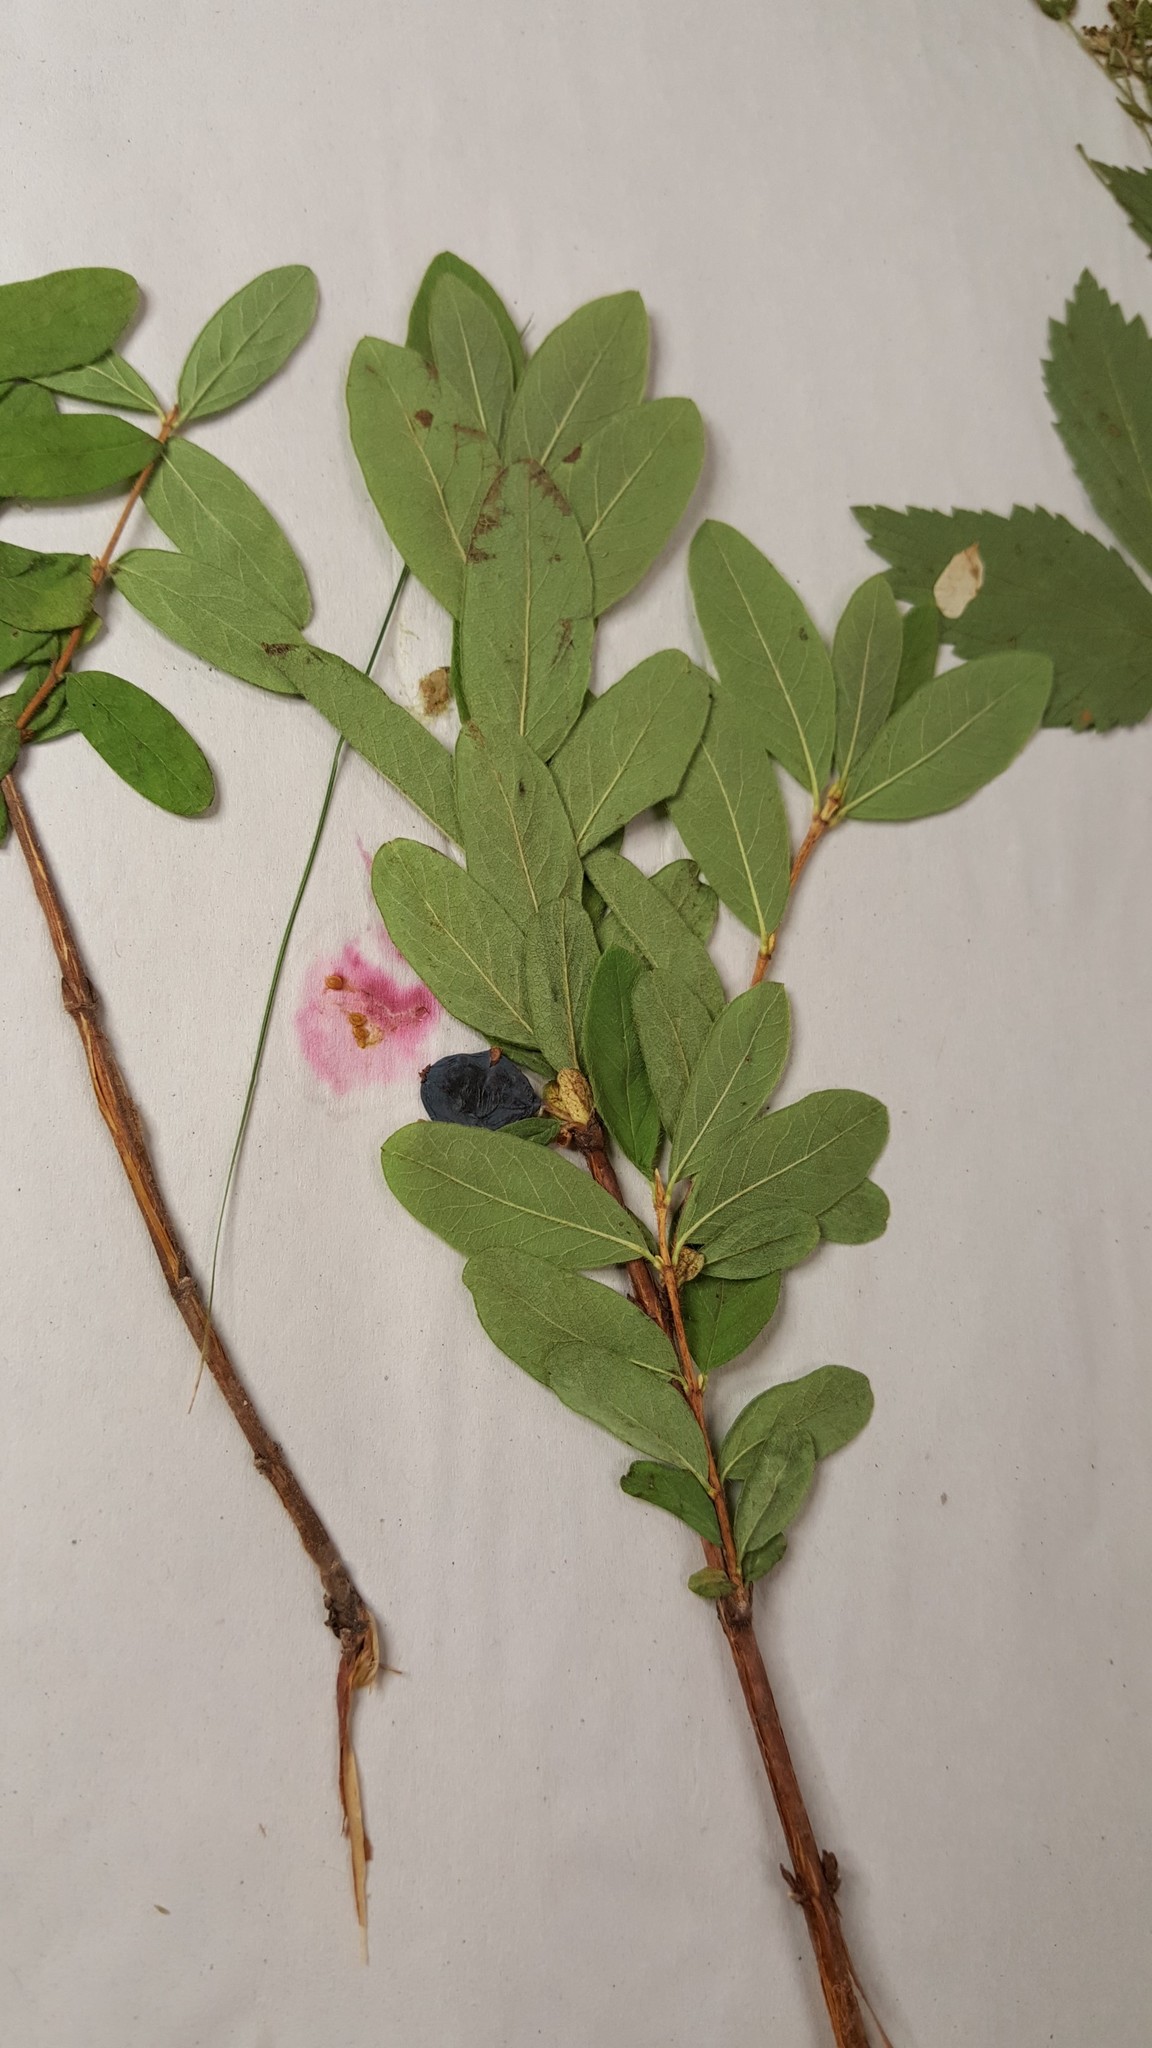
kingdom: Plantae
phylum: Tracheophyta
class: Magnoliopsida
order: Dipsacales
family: Caprifoliaceae
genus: Lonicera
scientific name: Lonicera villosa
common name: Mountain fly-honeysuckle
